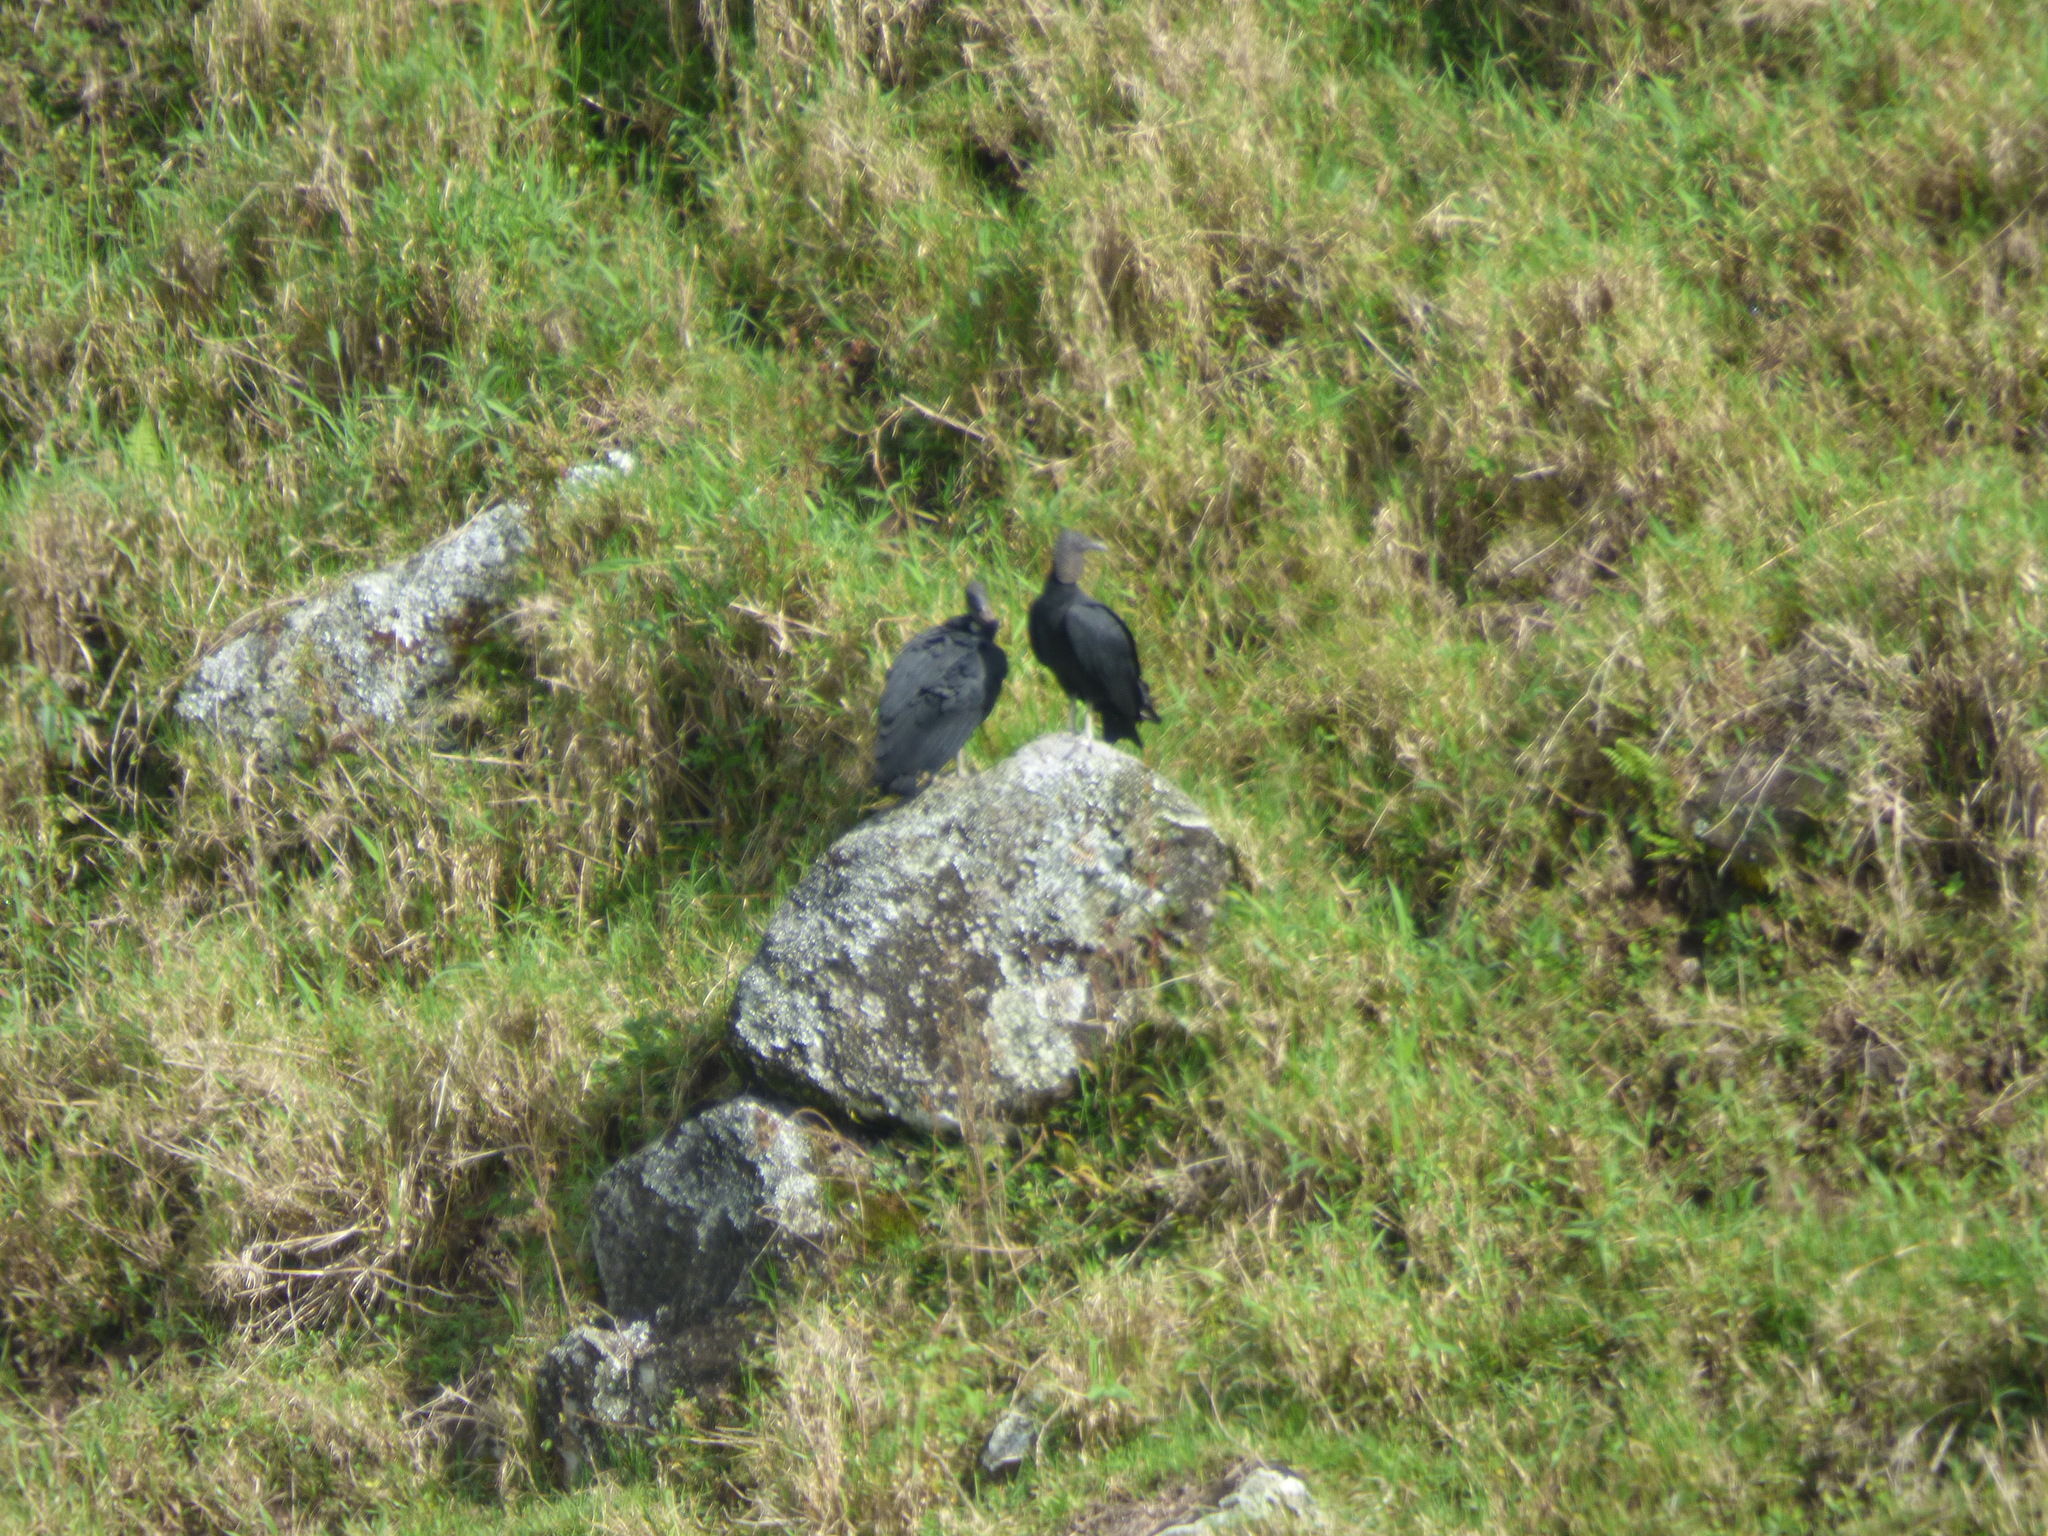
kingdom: Animalia
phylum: Chordata
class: Aves
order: Accipitriformes
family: Cathartidae
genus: Coragyps
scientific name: Coragyps atratus
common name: Black vulture
